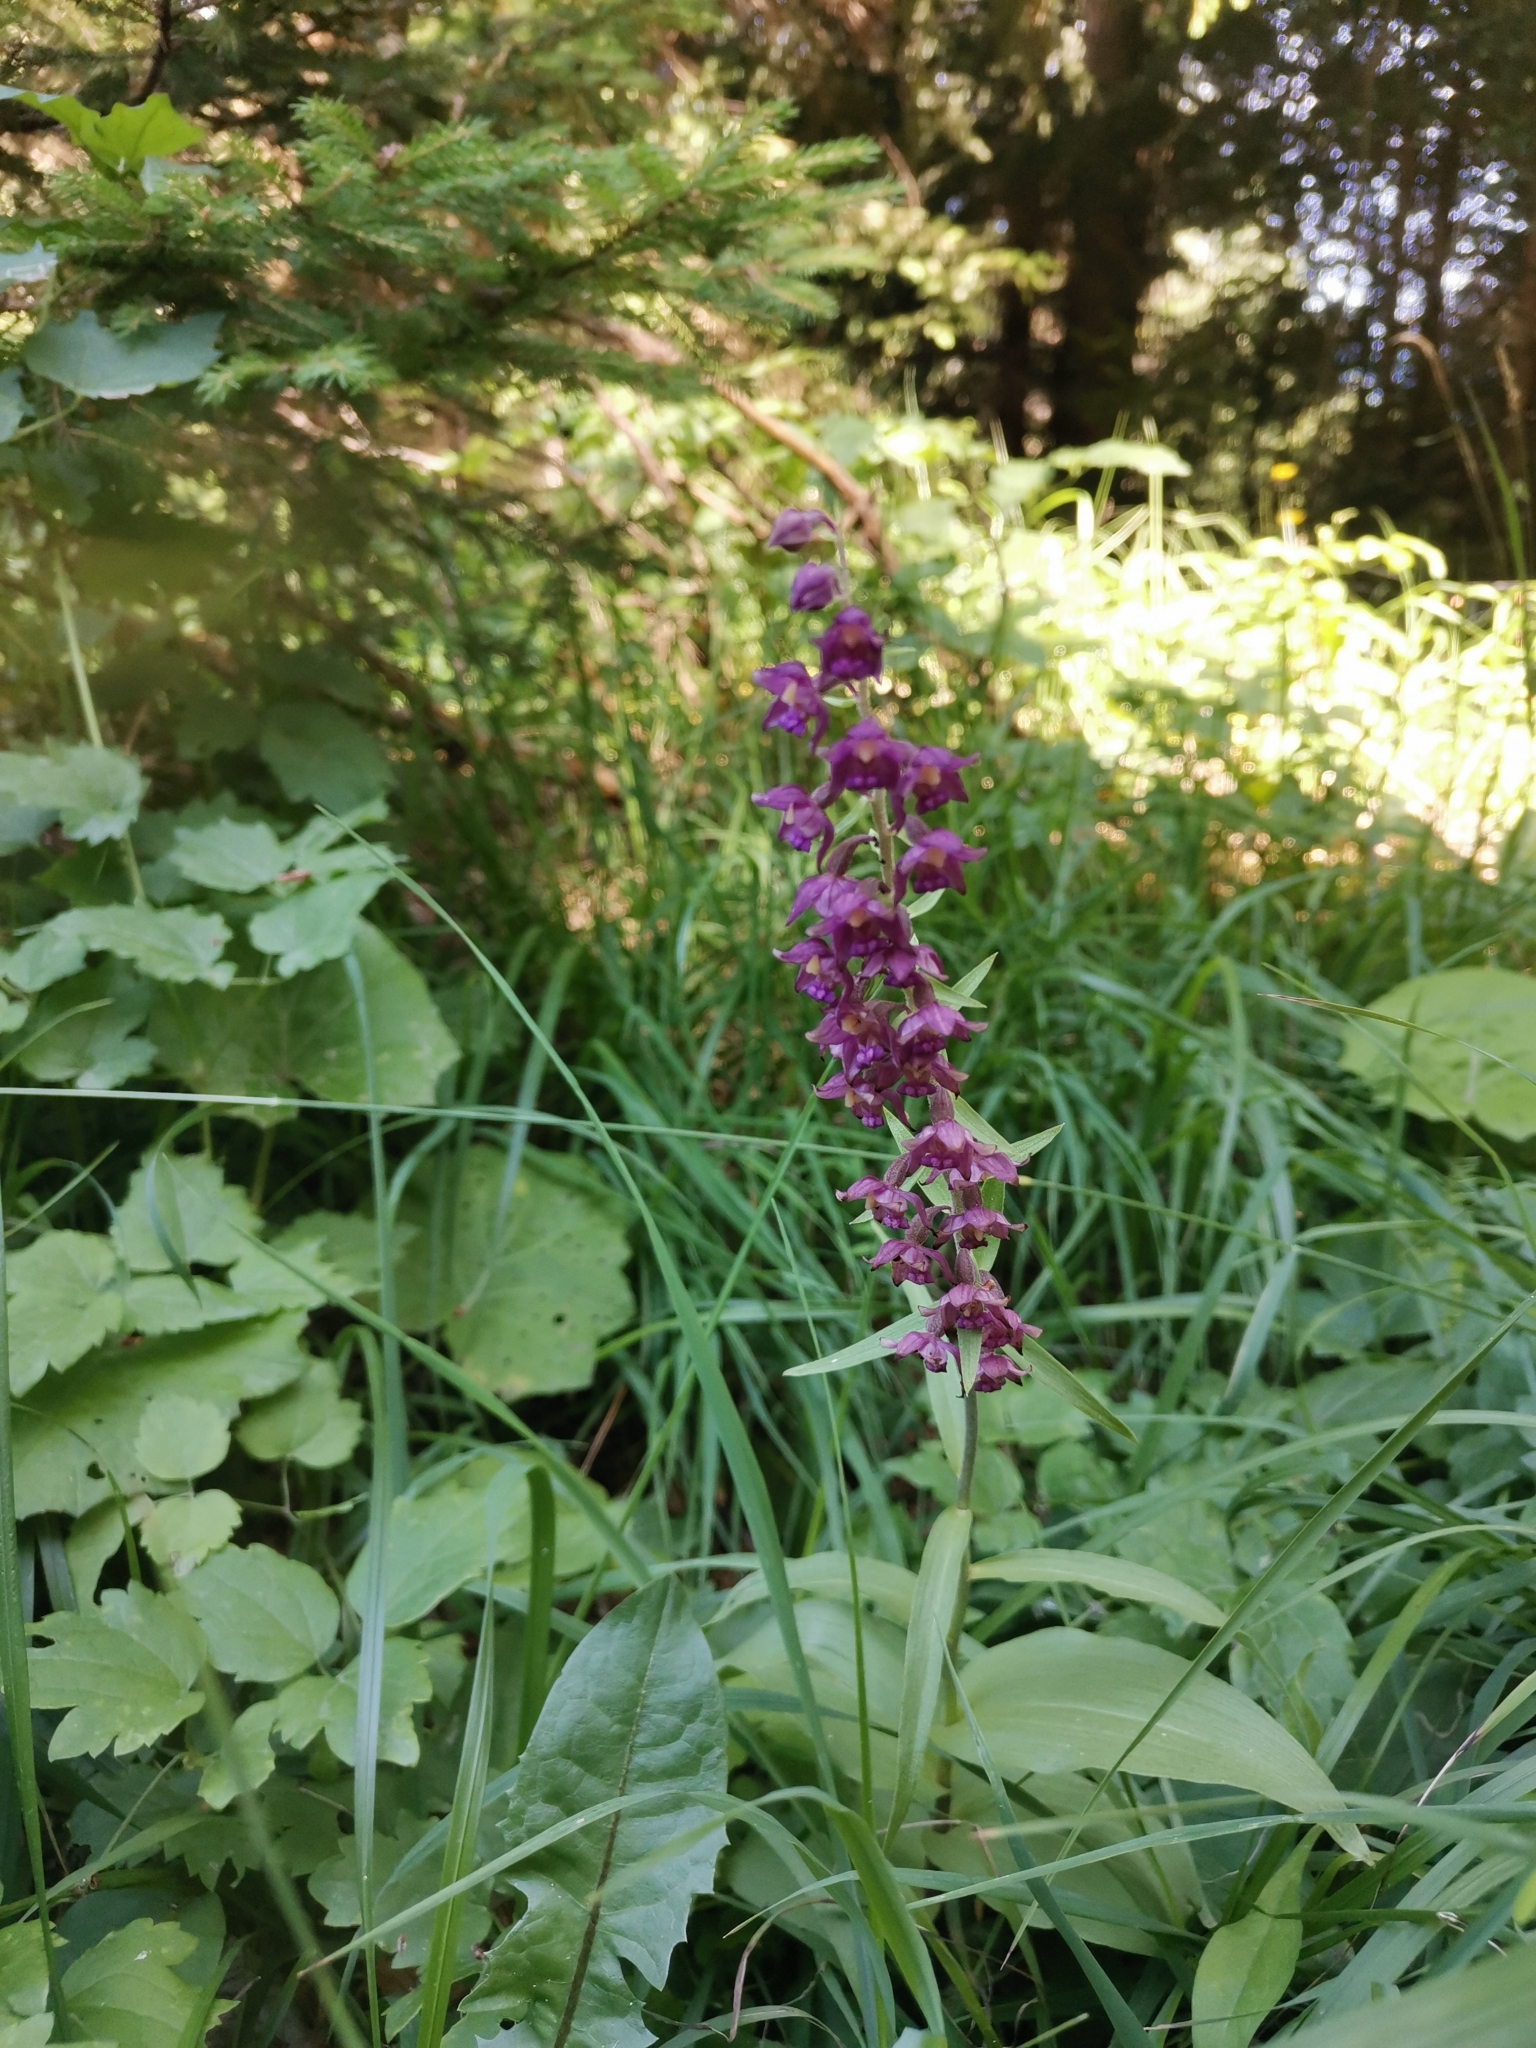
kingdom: Plantae
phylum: Tracheophyta
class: Liliopsida
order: Asparagales
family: Orchidaceae
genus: Epipactis
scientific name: Epipactis atrorubens
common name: Dark-red helleborine
